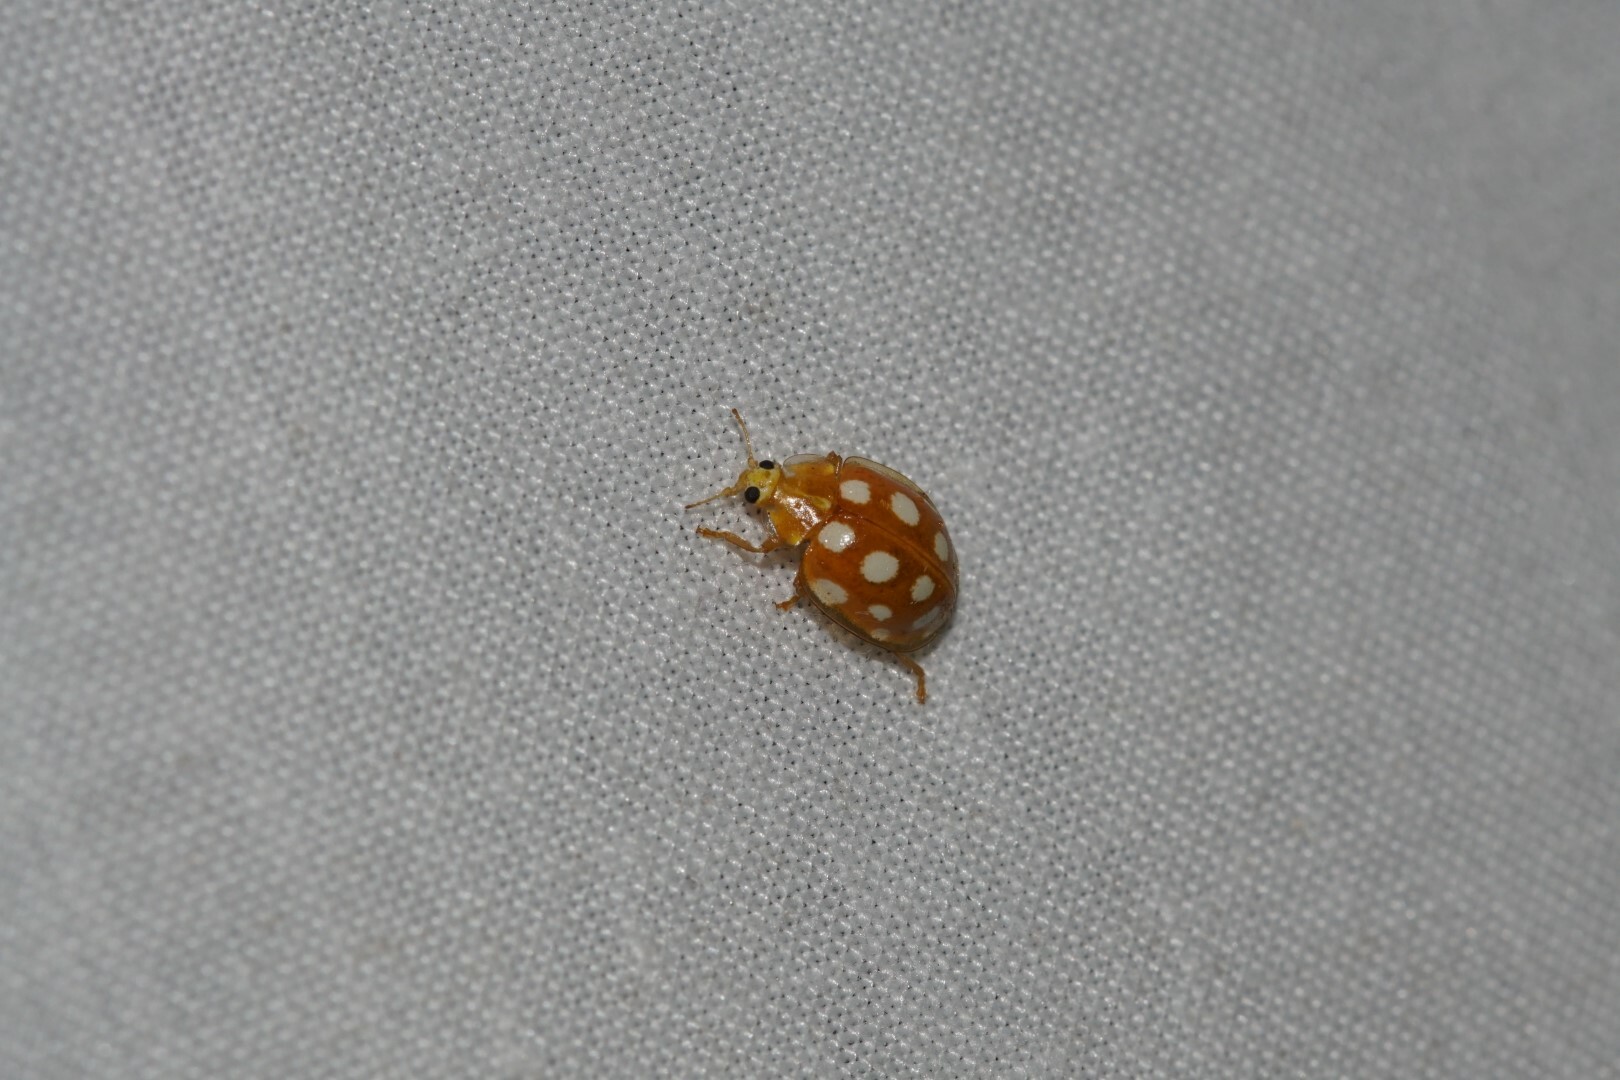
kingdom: Animalia
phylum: Arthropoda
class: Insecta
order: Coleoptera
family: Coccinellidae
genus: Halyzia
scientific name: Halyzia sedecimguttata
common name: Orange ladybird
